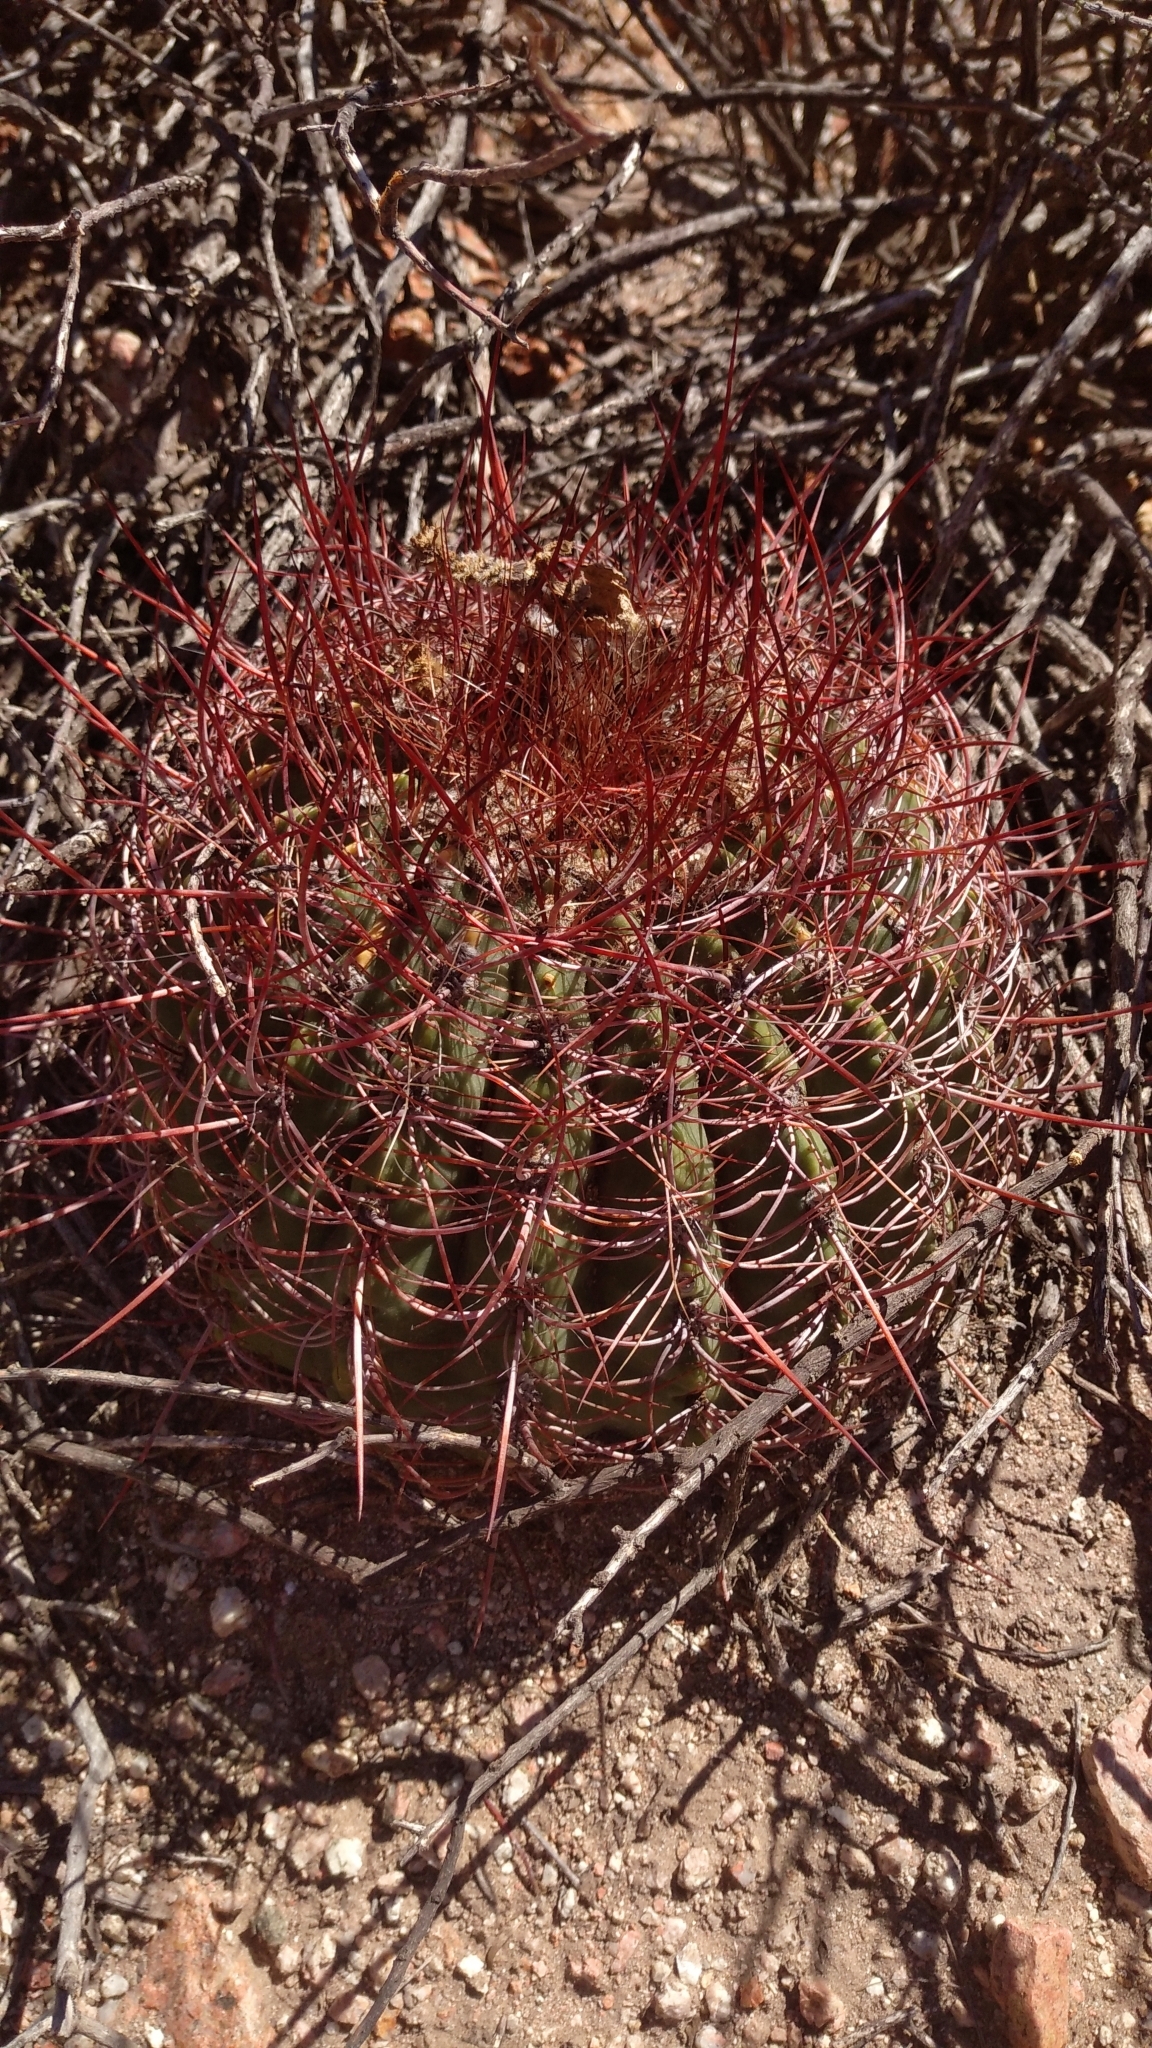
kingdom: Plantae
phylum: Tracheophyta
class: Magnoliopsida
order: Caryophyllales
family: Cactaceae
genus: Denmoza
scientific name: Denmoza rhodacantha
